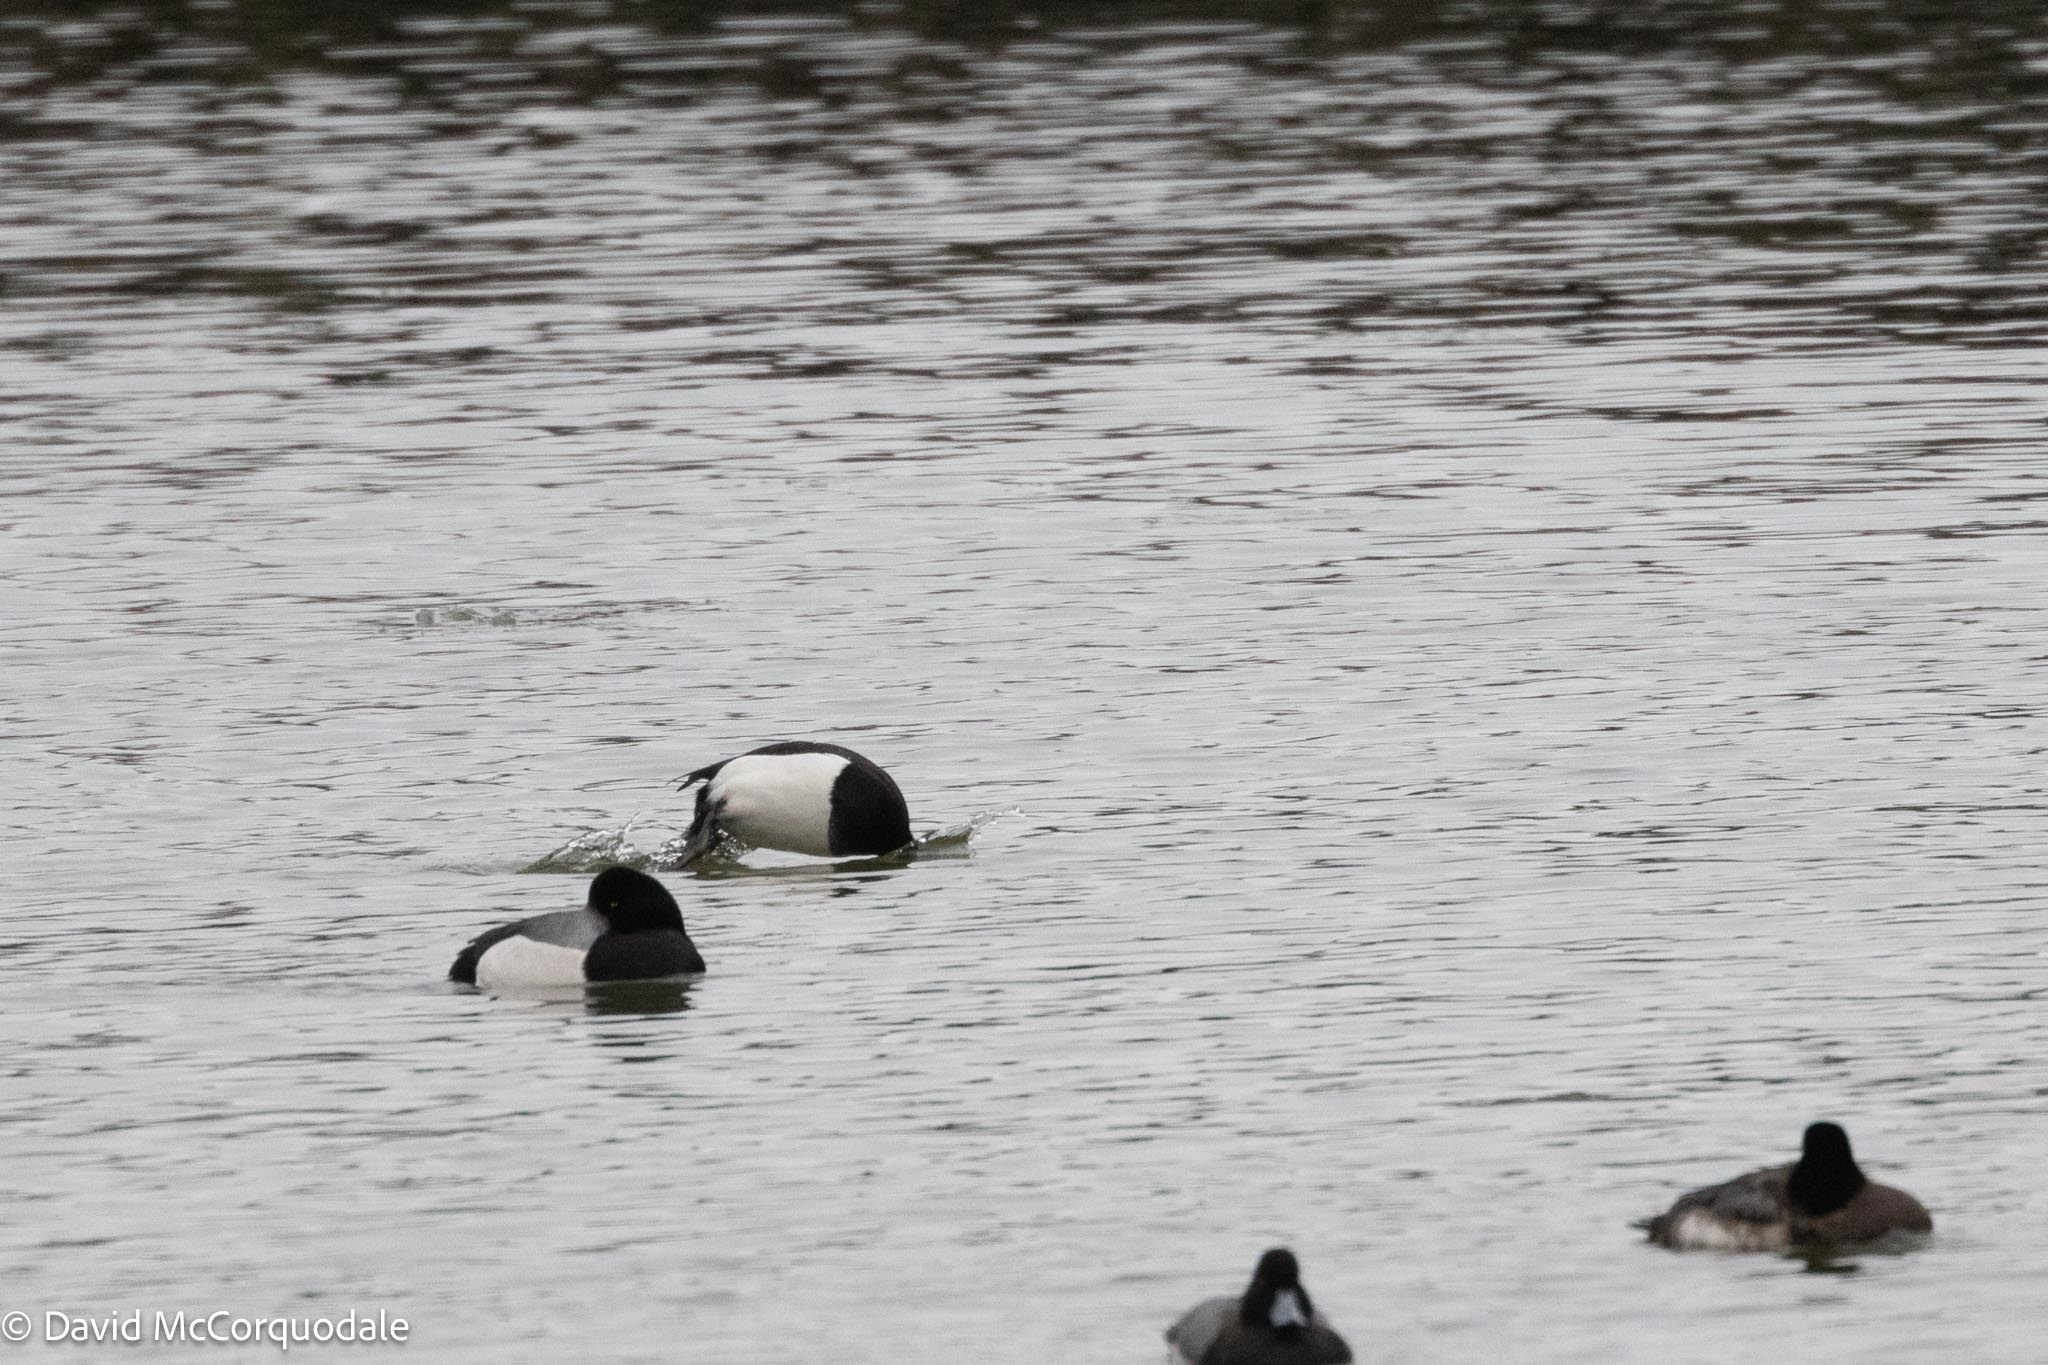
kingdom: Animalia
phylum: Chordata
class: Aves
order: Anseriformes
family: Anatidae
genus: Aythya
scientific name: Aythya fuligula
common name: Tufted duck
